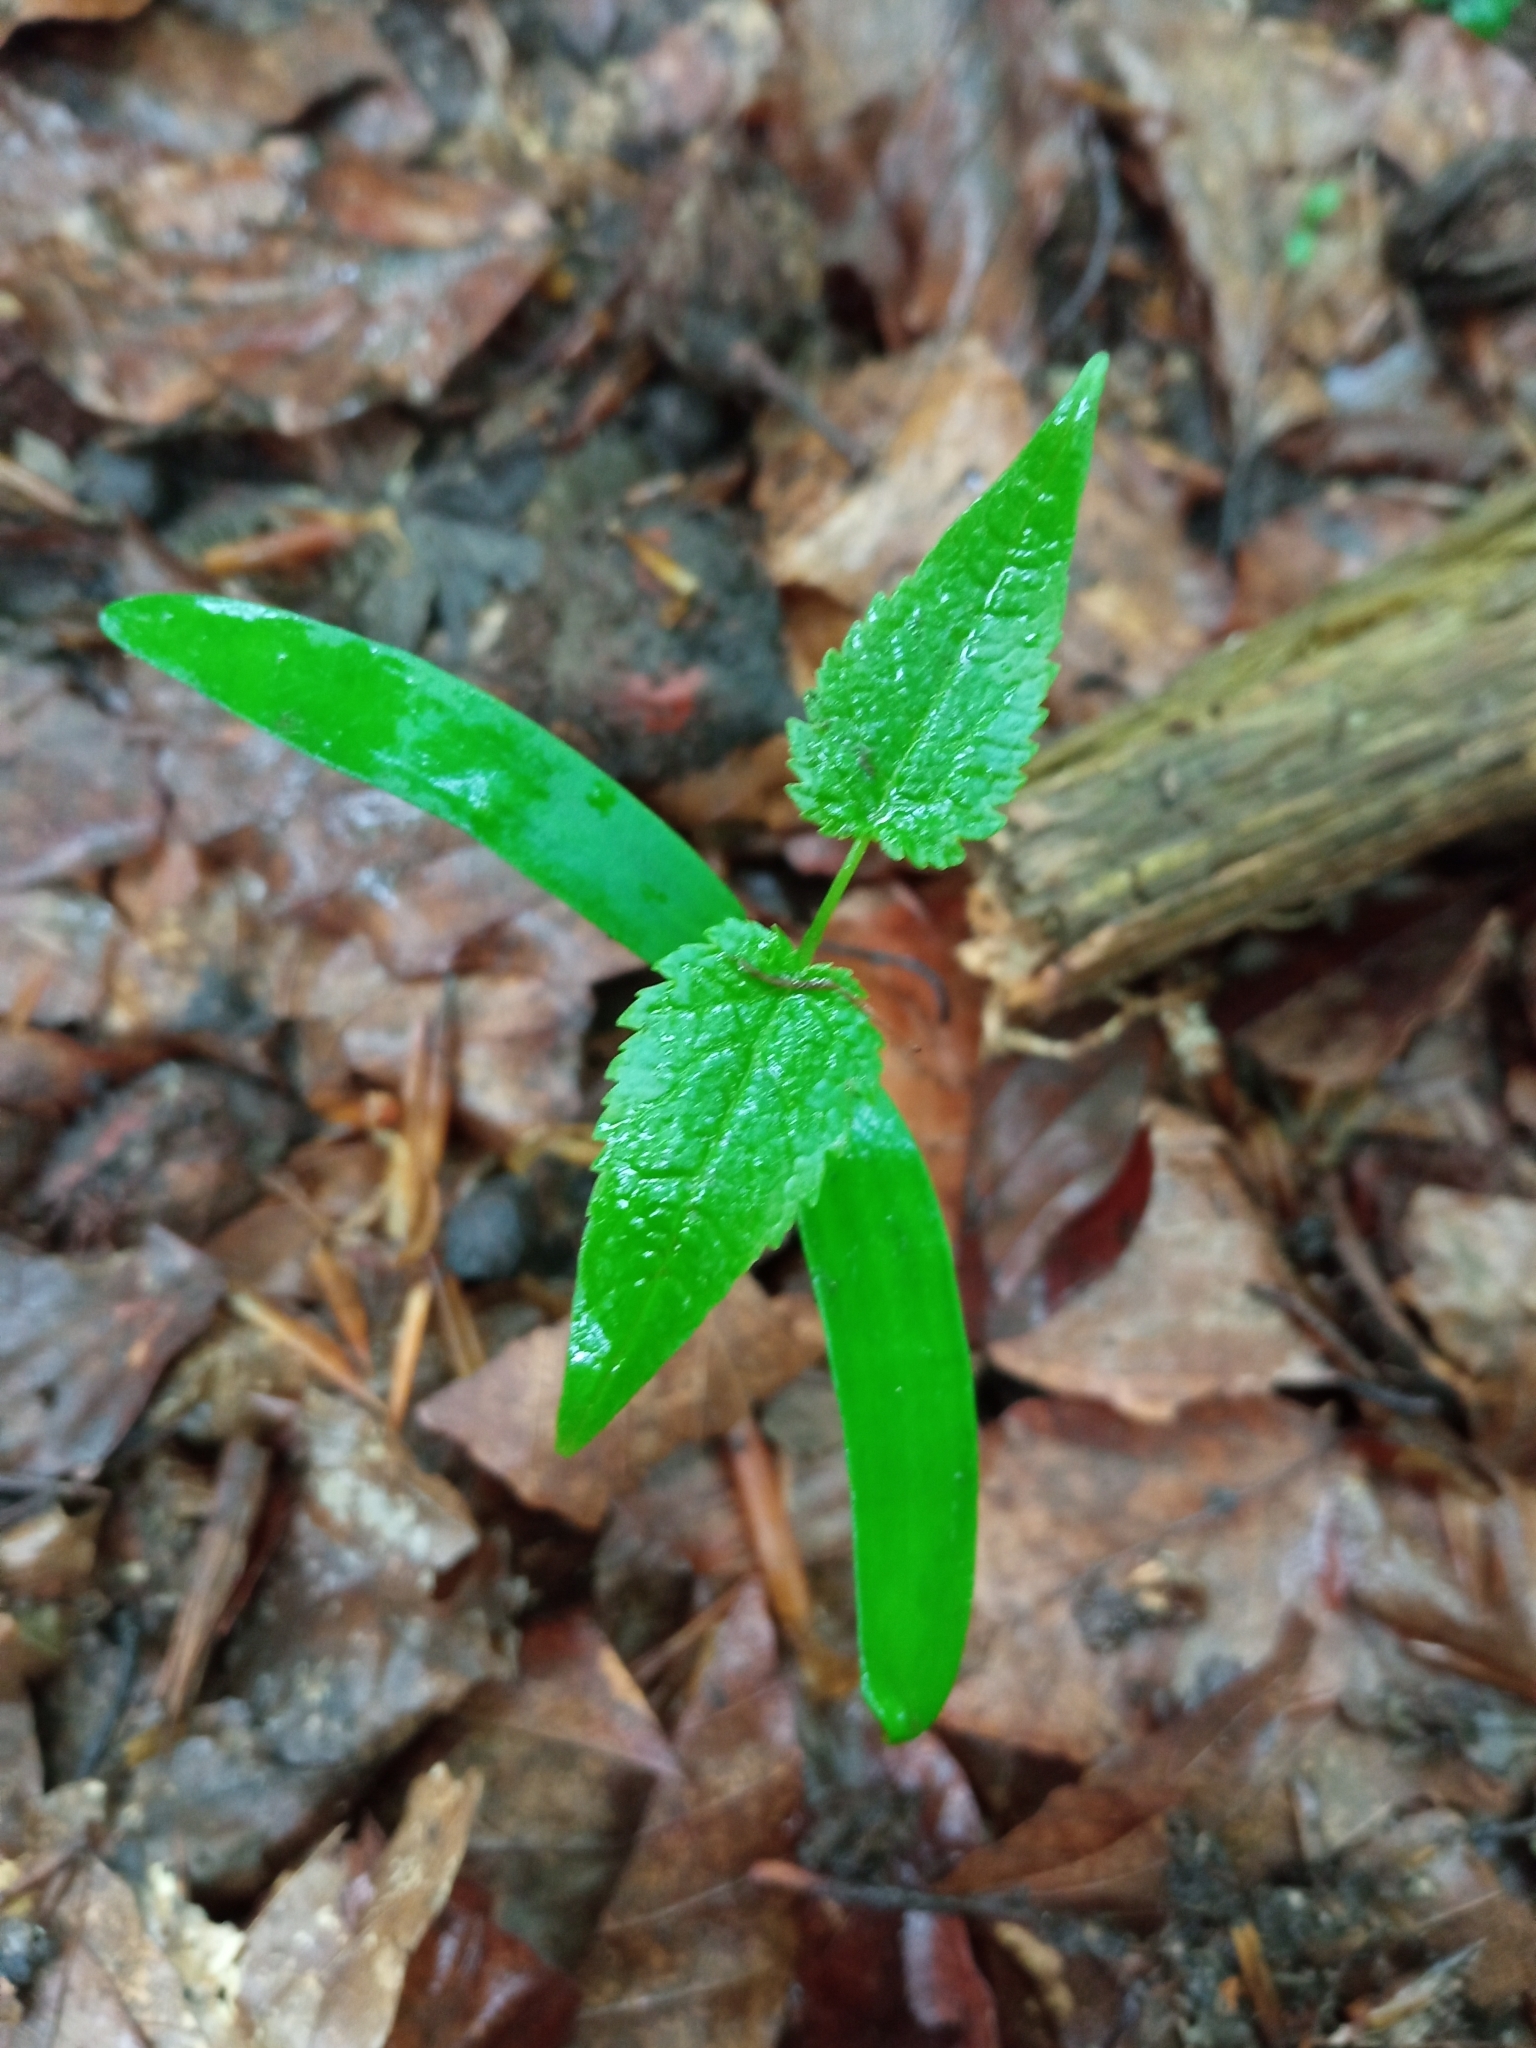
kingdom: Plantae
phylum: Tracheophyta
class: Magnoliopsida
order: Sapindales
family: Sapindaceae
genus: Acer
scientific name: Acer pseudoplatanus
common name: Sycamore
